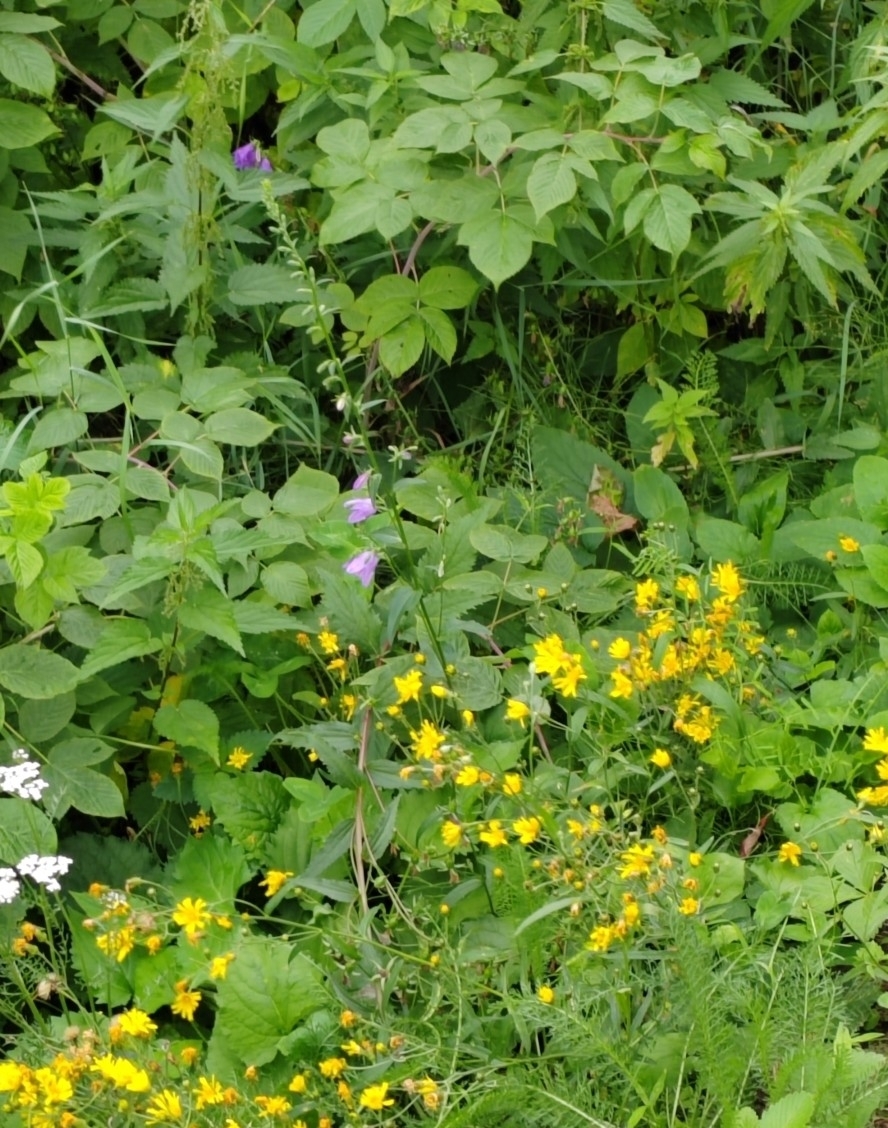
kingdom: Plantae
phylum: Tracheophyta
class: Magnoliopsida
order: Asterales
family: Campanulaceae
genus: Campanula
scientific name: Campanula rapunculoides
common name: Creeping bellflower
